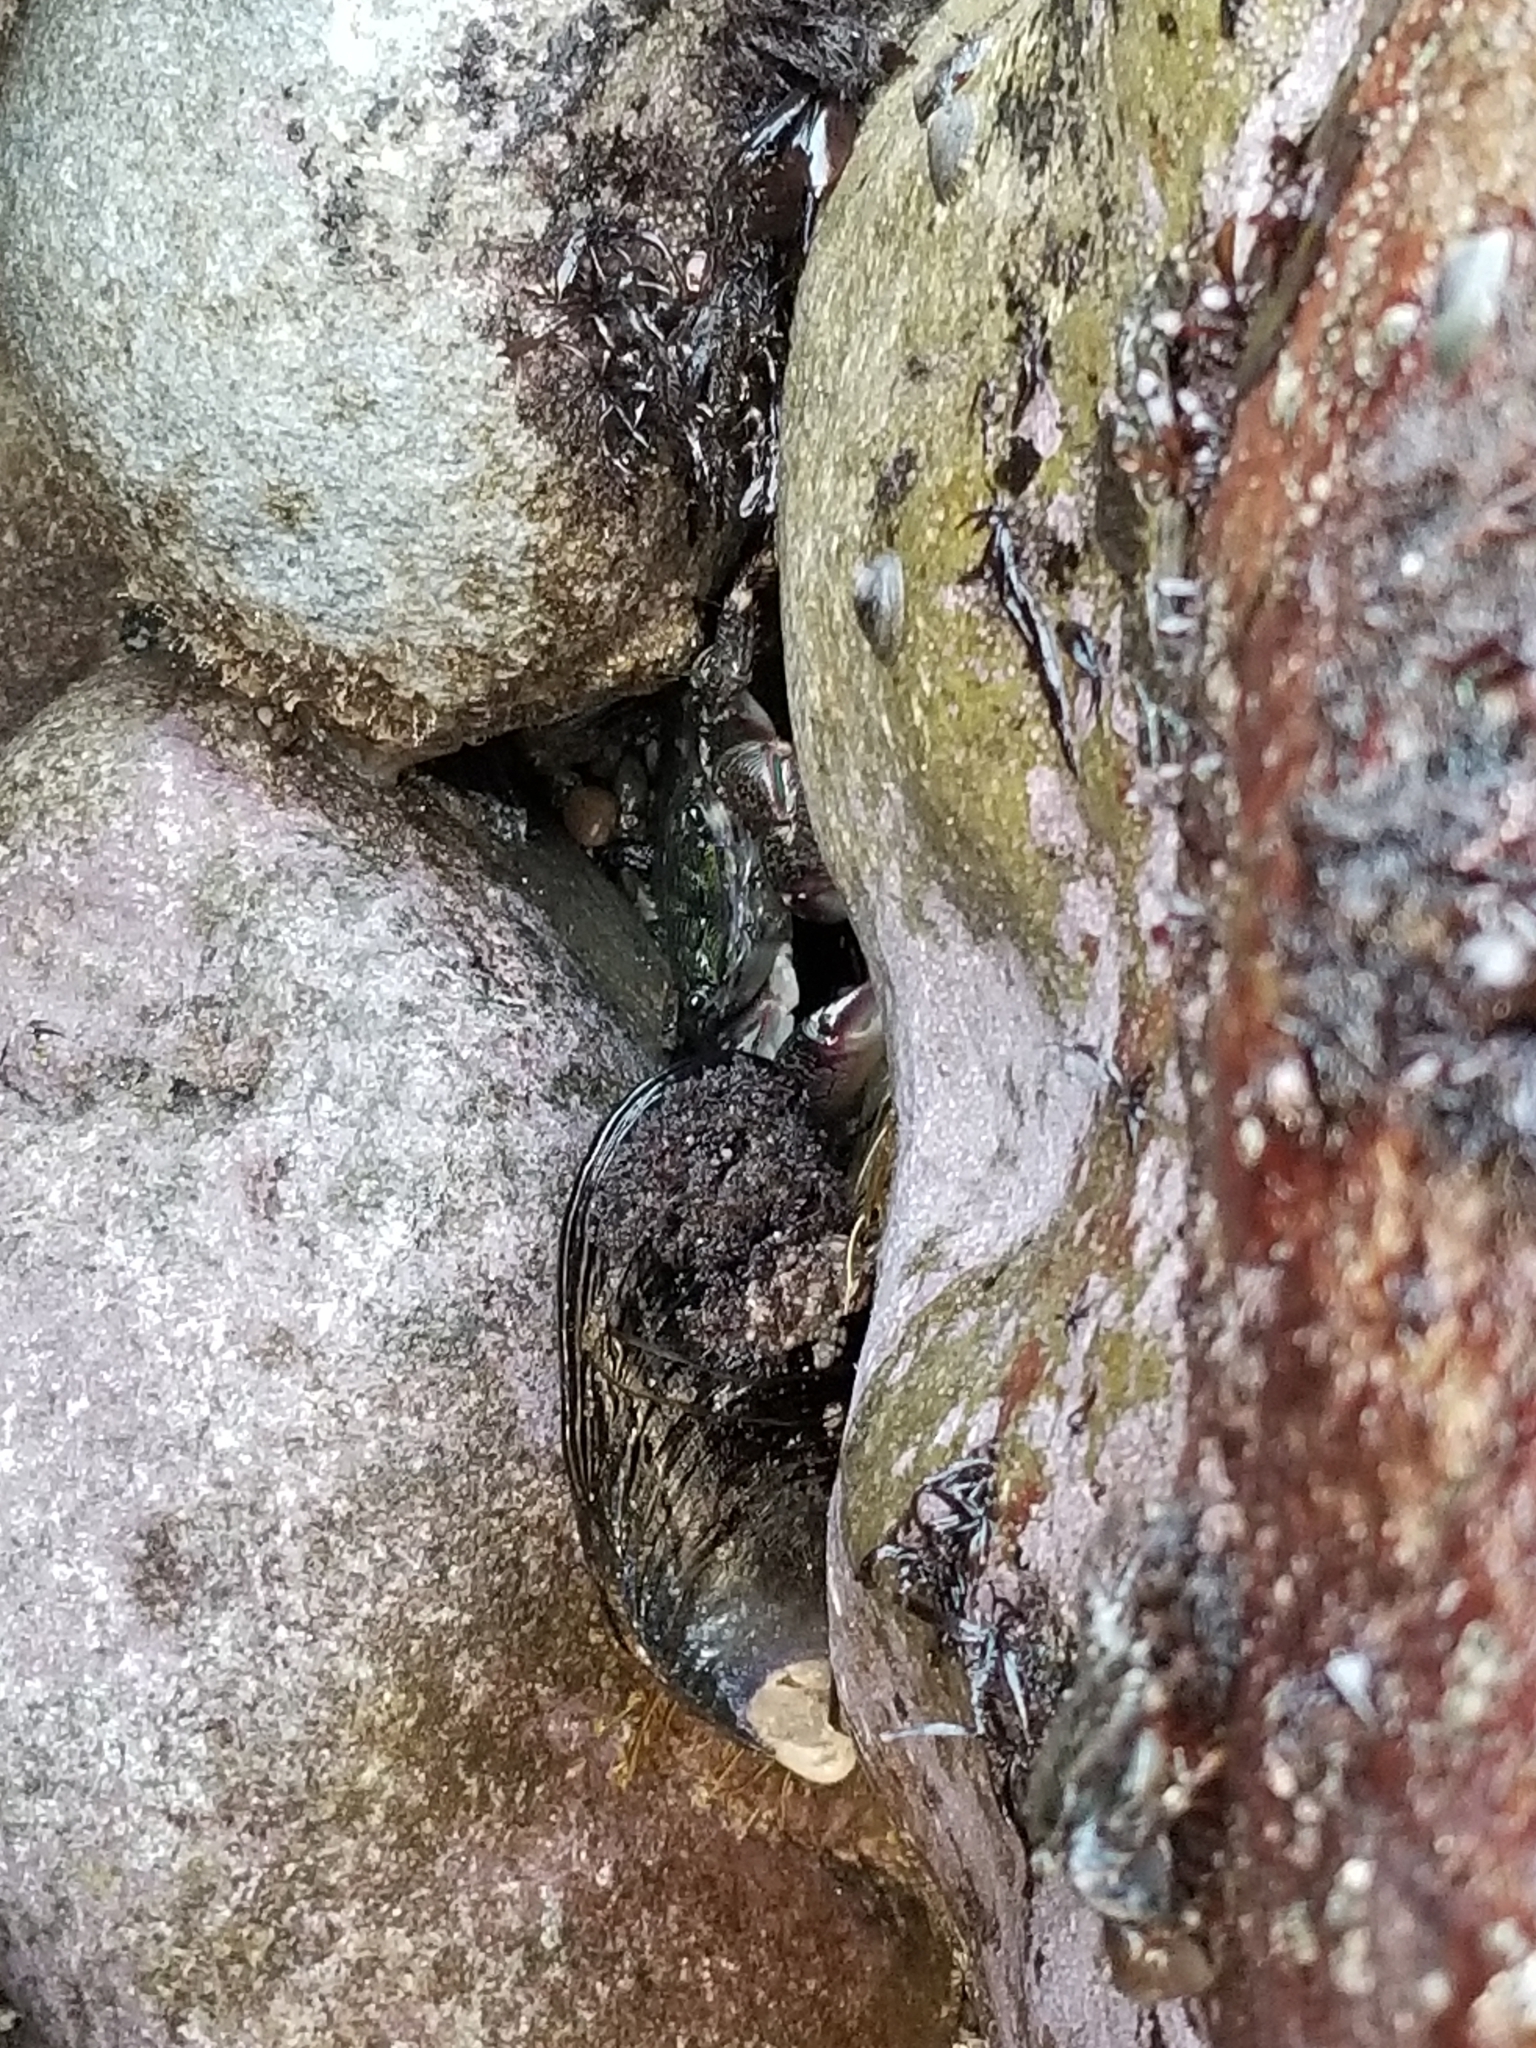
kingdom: Animalia
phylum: Arthropoda
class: Malacostraca
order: Decapoda
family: Grapsidae
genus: Pachygrapsus
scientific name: Pachygrapsus crassipes
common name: Striped shore crab
